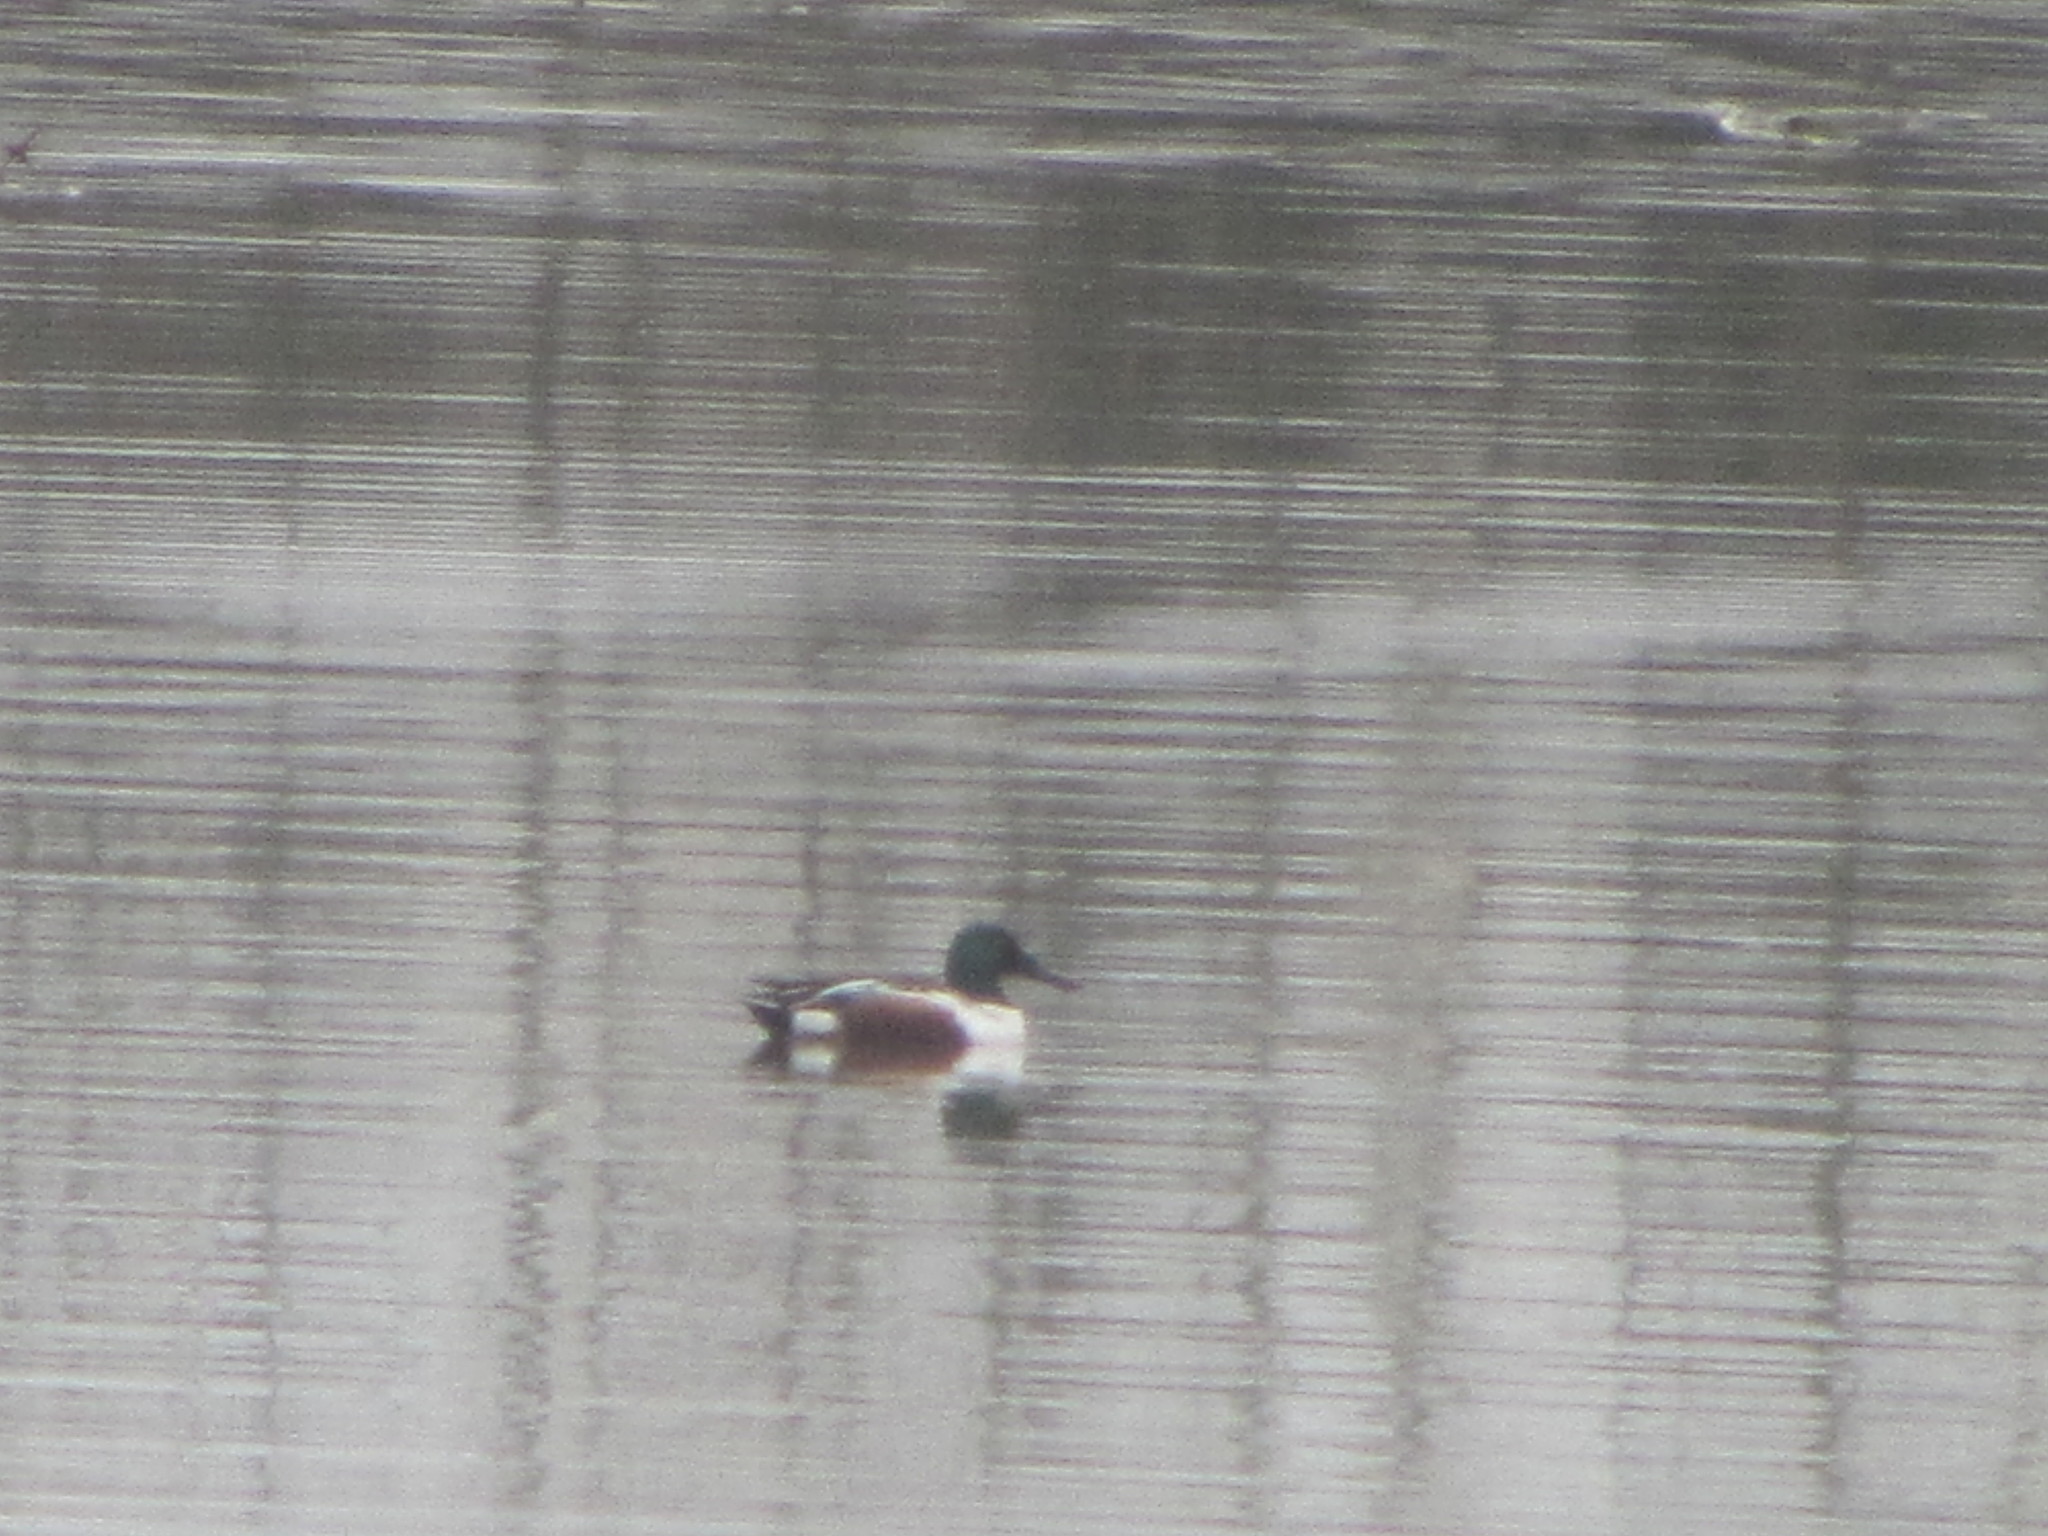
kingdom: Animalia
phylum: Chordata
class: Aves
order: Anseriformes
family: Anatidae
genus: Spatula
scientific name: Spatula clypeata
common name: Northern shoveler
